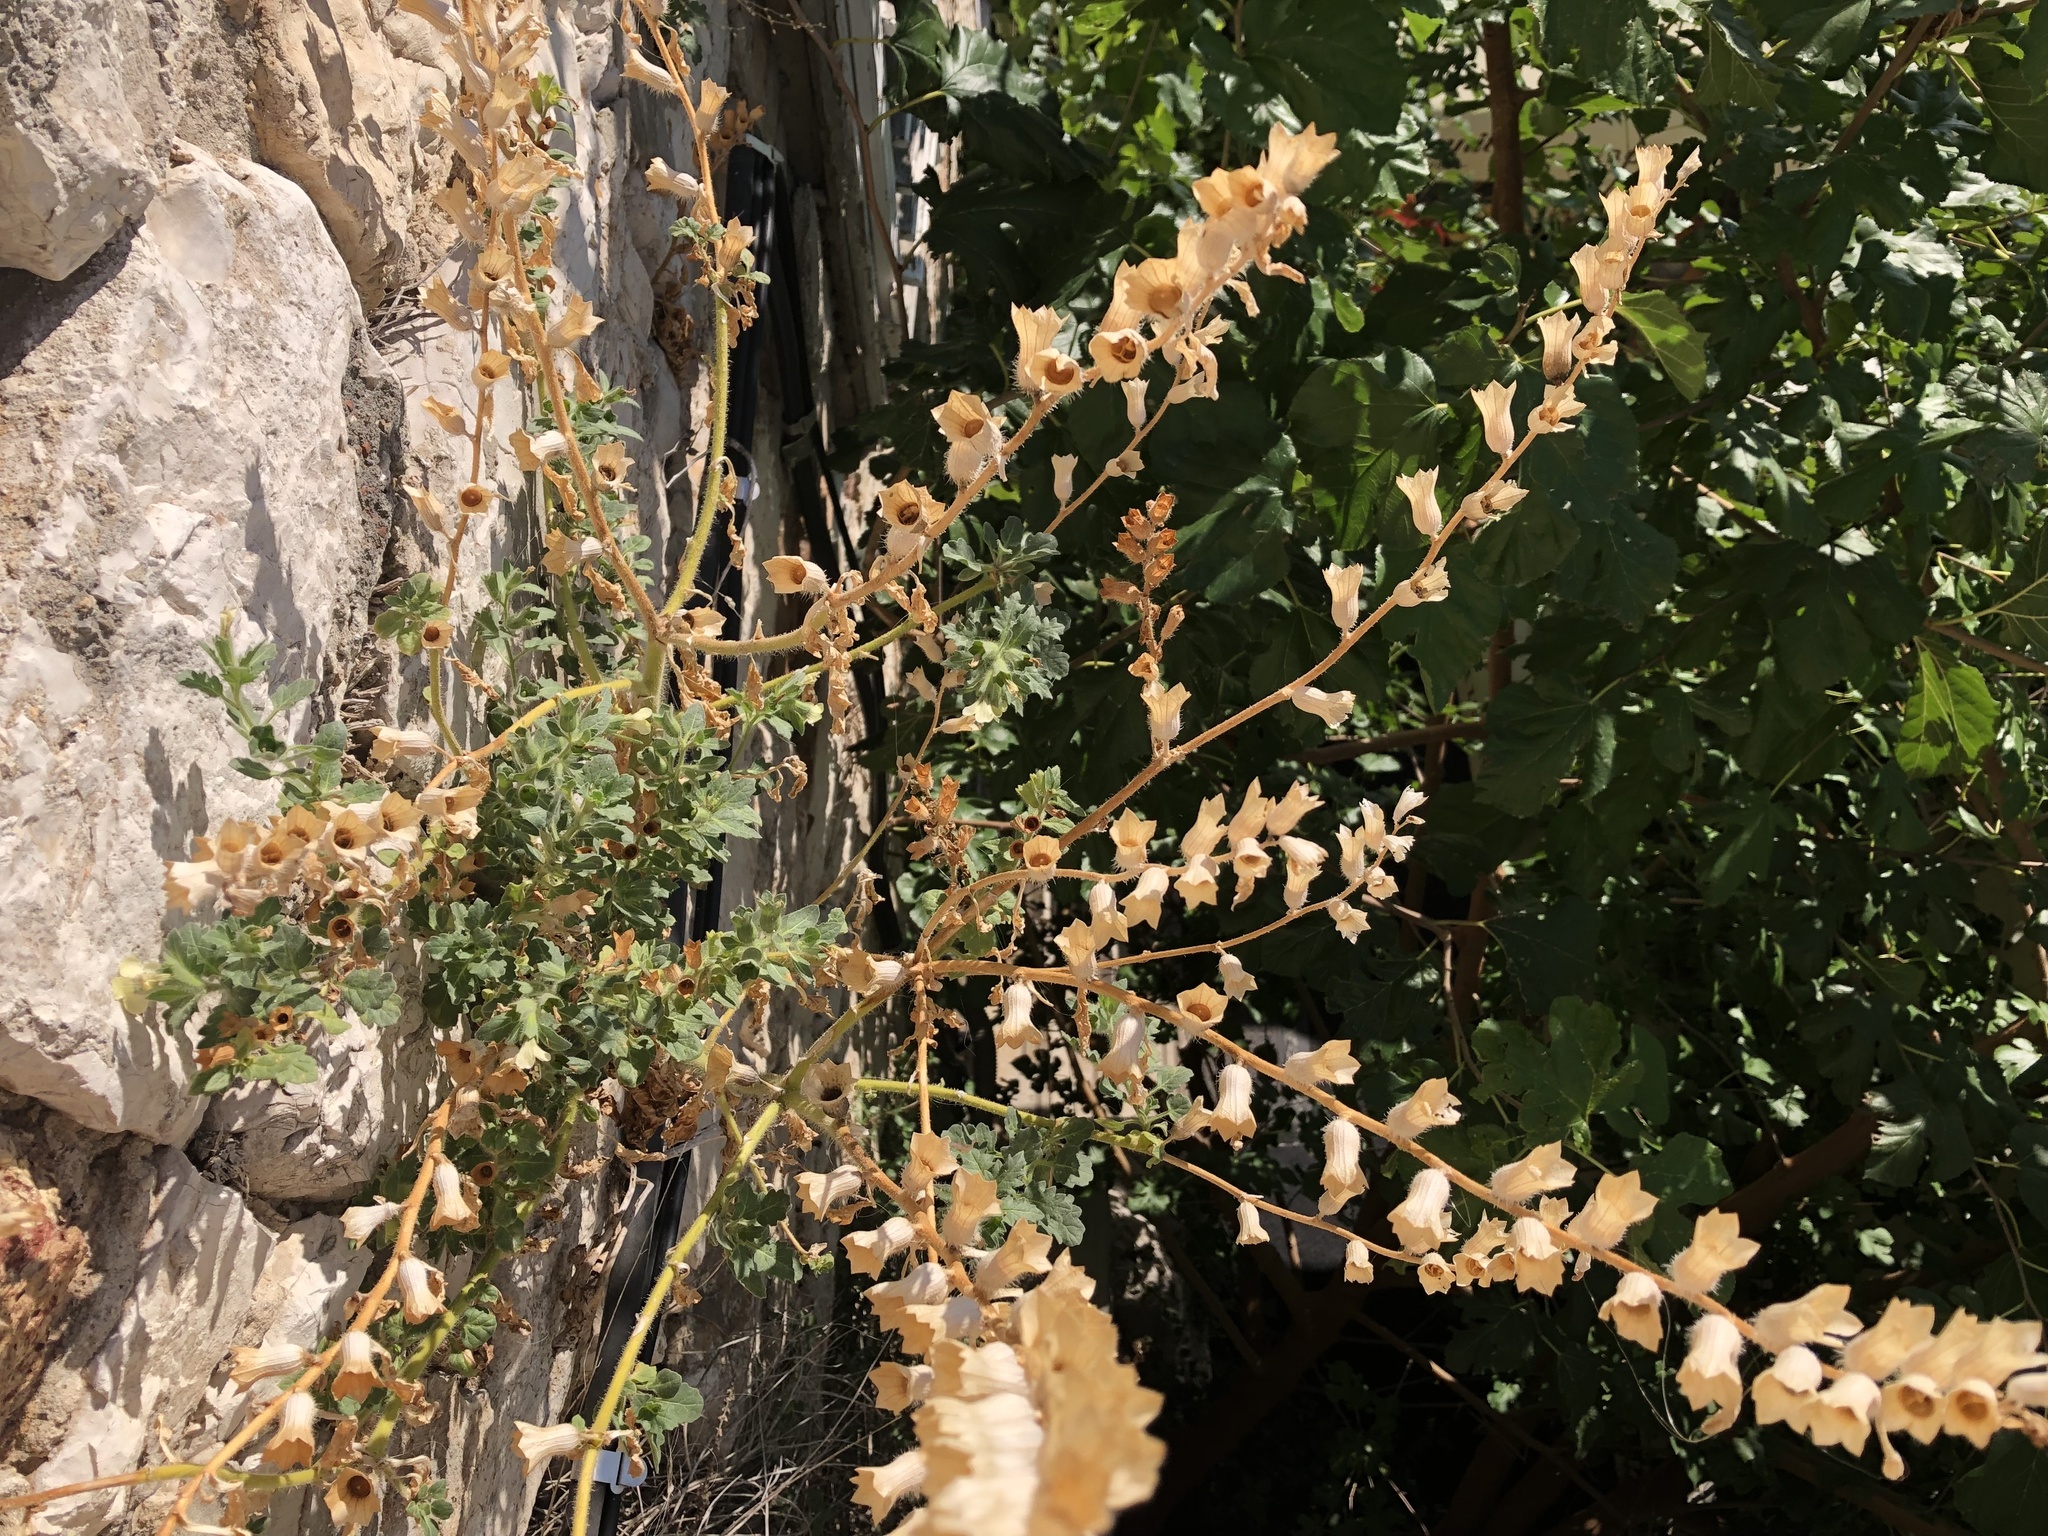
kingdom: Plantae
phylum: Tracheophyta
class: Magnoliopsida
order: Solanales
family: Solanaceae
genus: Hyoscyamus
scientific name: Hyoscyamus albus
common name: White henbane
